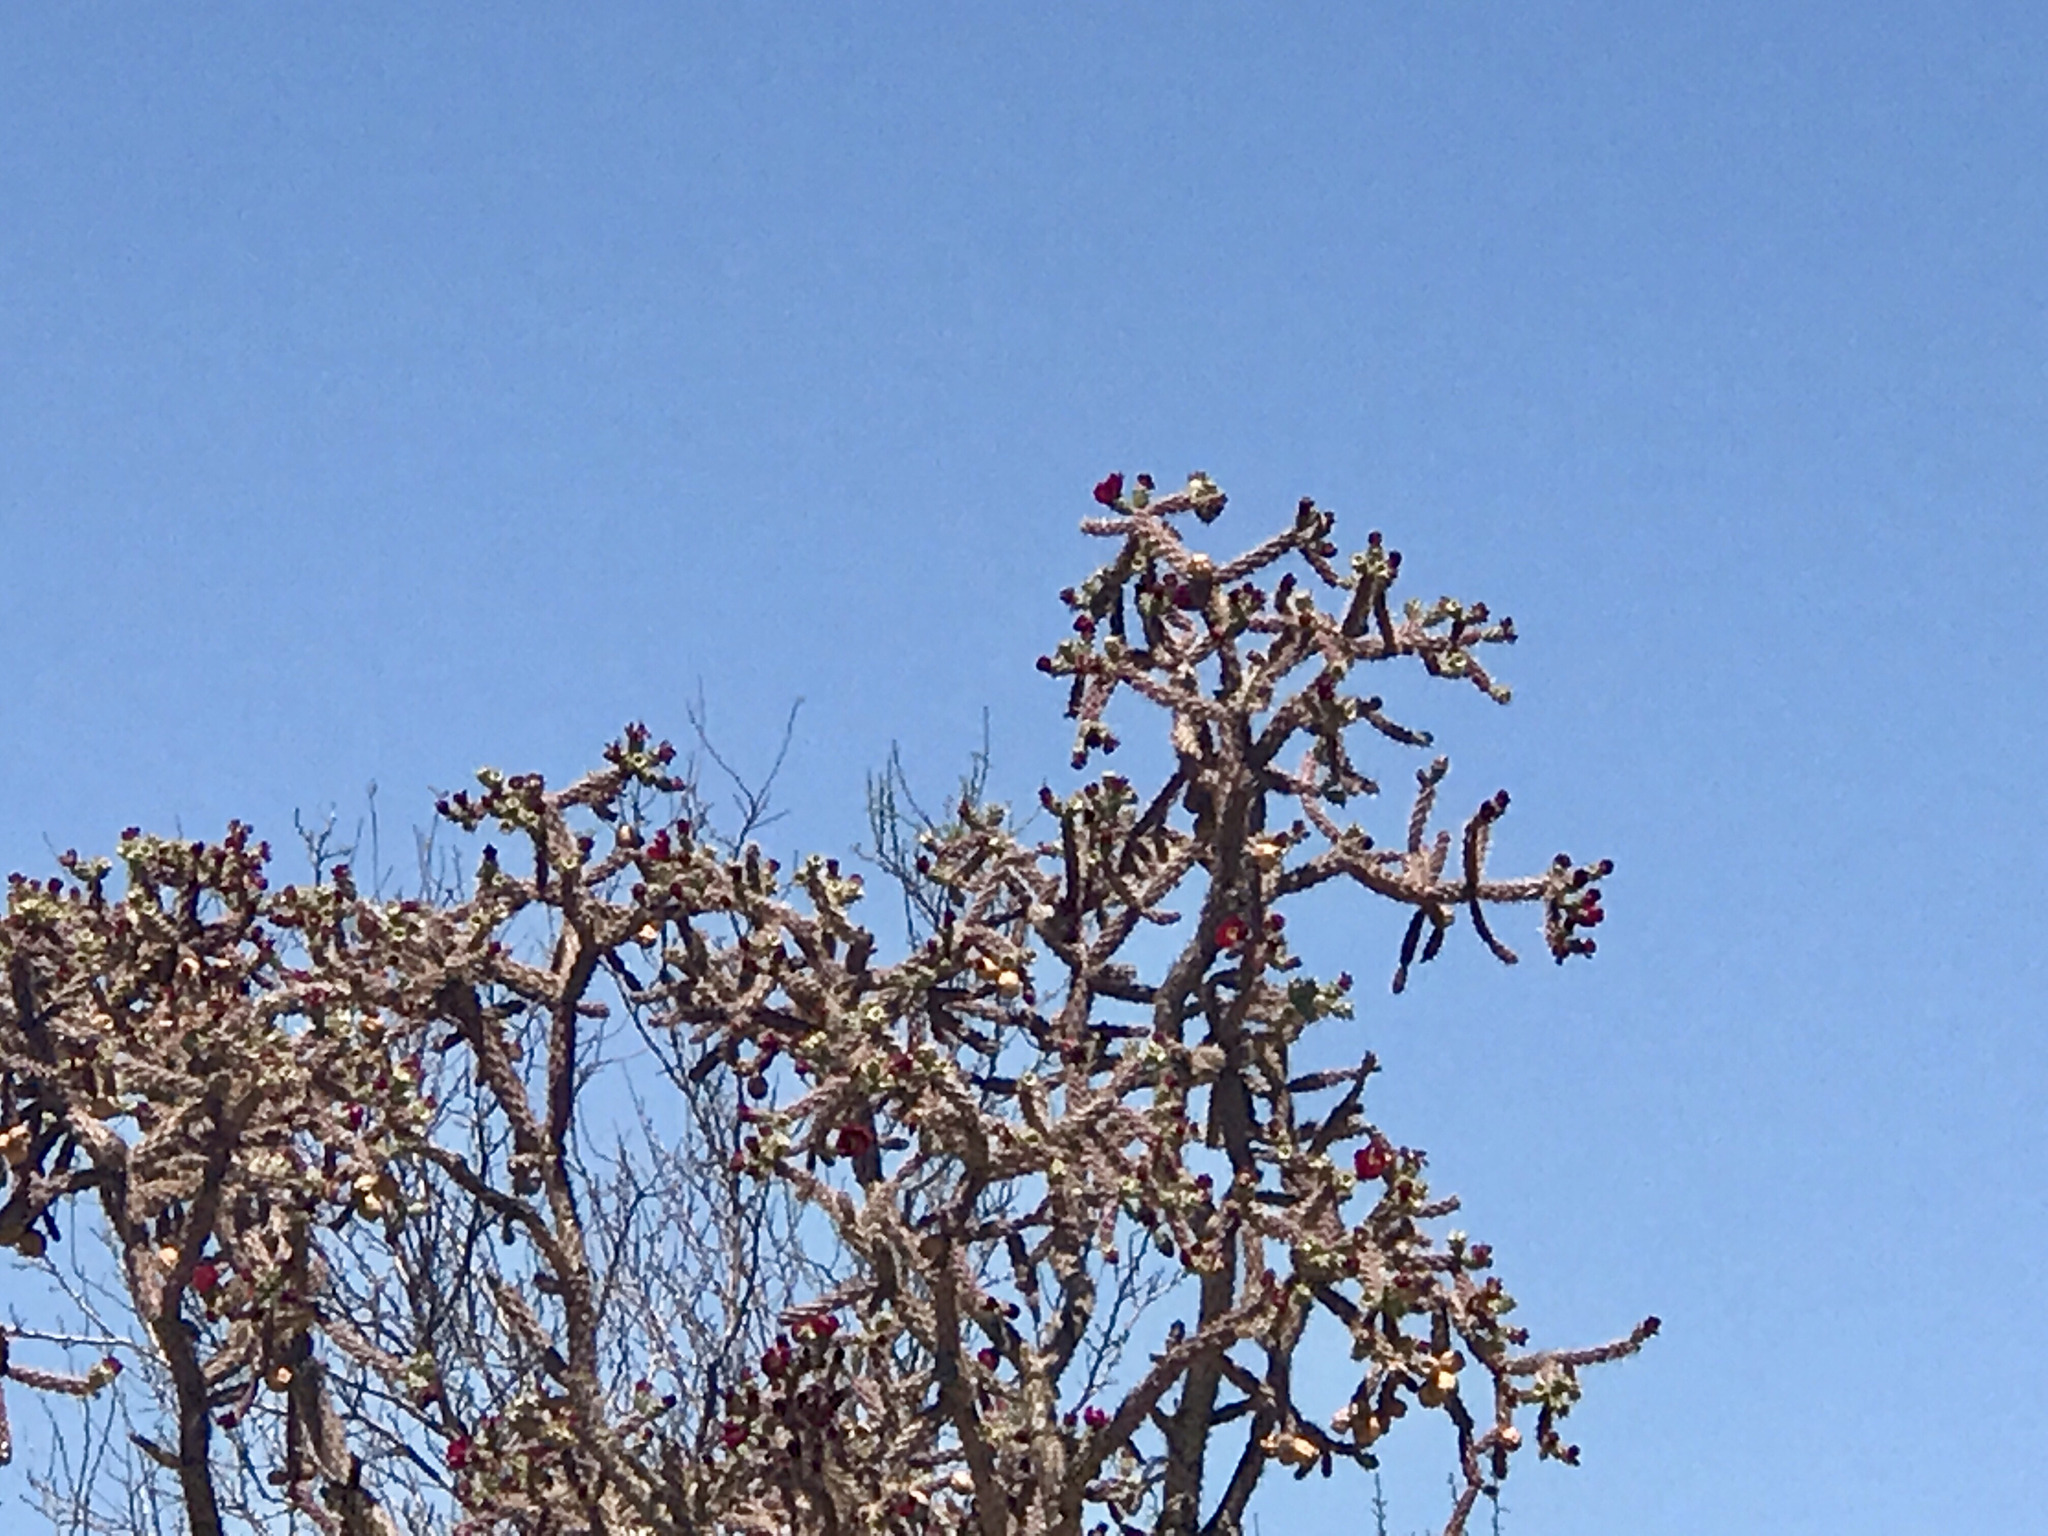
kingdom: Plantae
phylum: Tracheophyta
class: Magnoliopsida
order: Caryophyllales
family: Cactaceae
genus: Cylindropuntia
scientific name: Cylindropuntia thurberi
